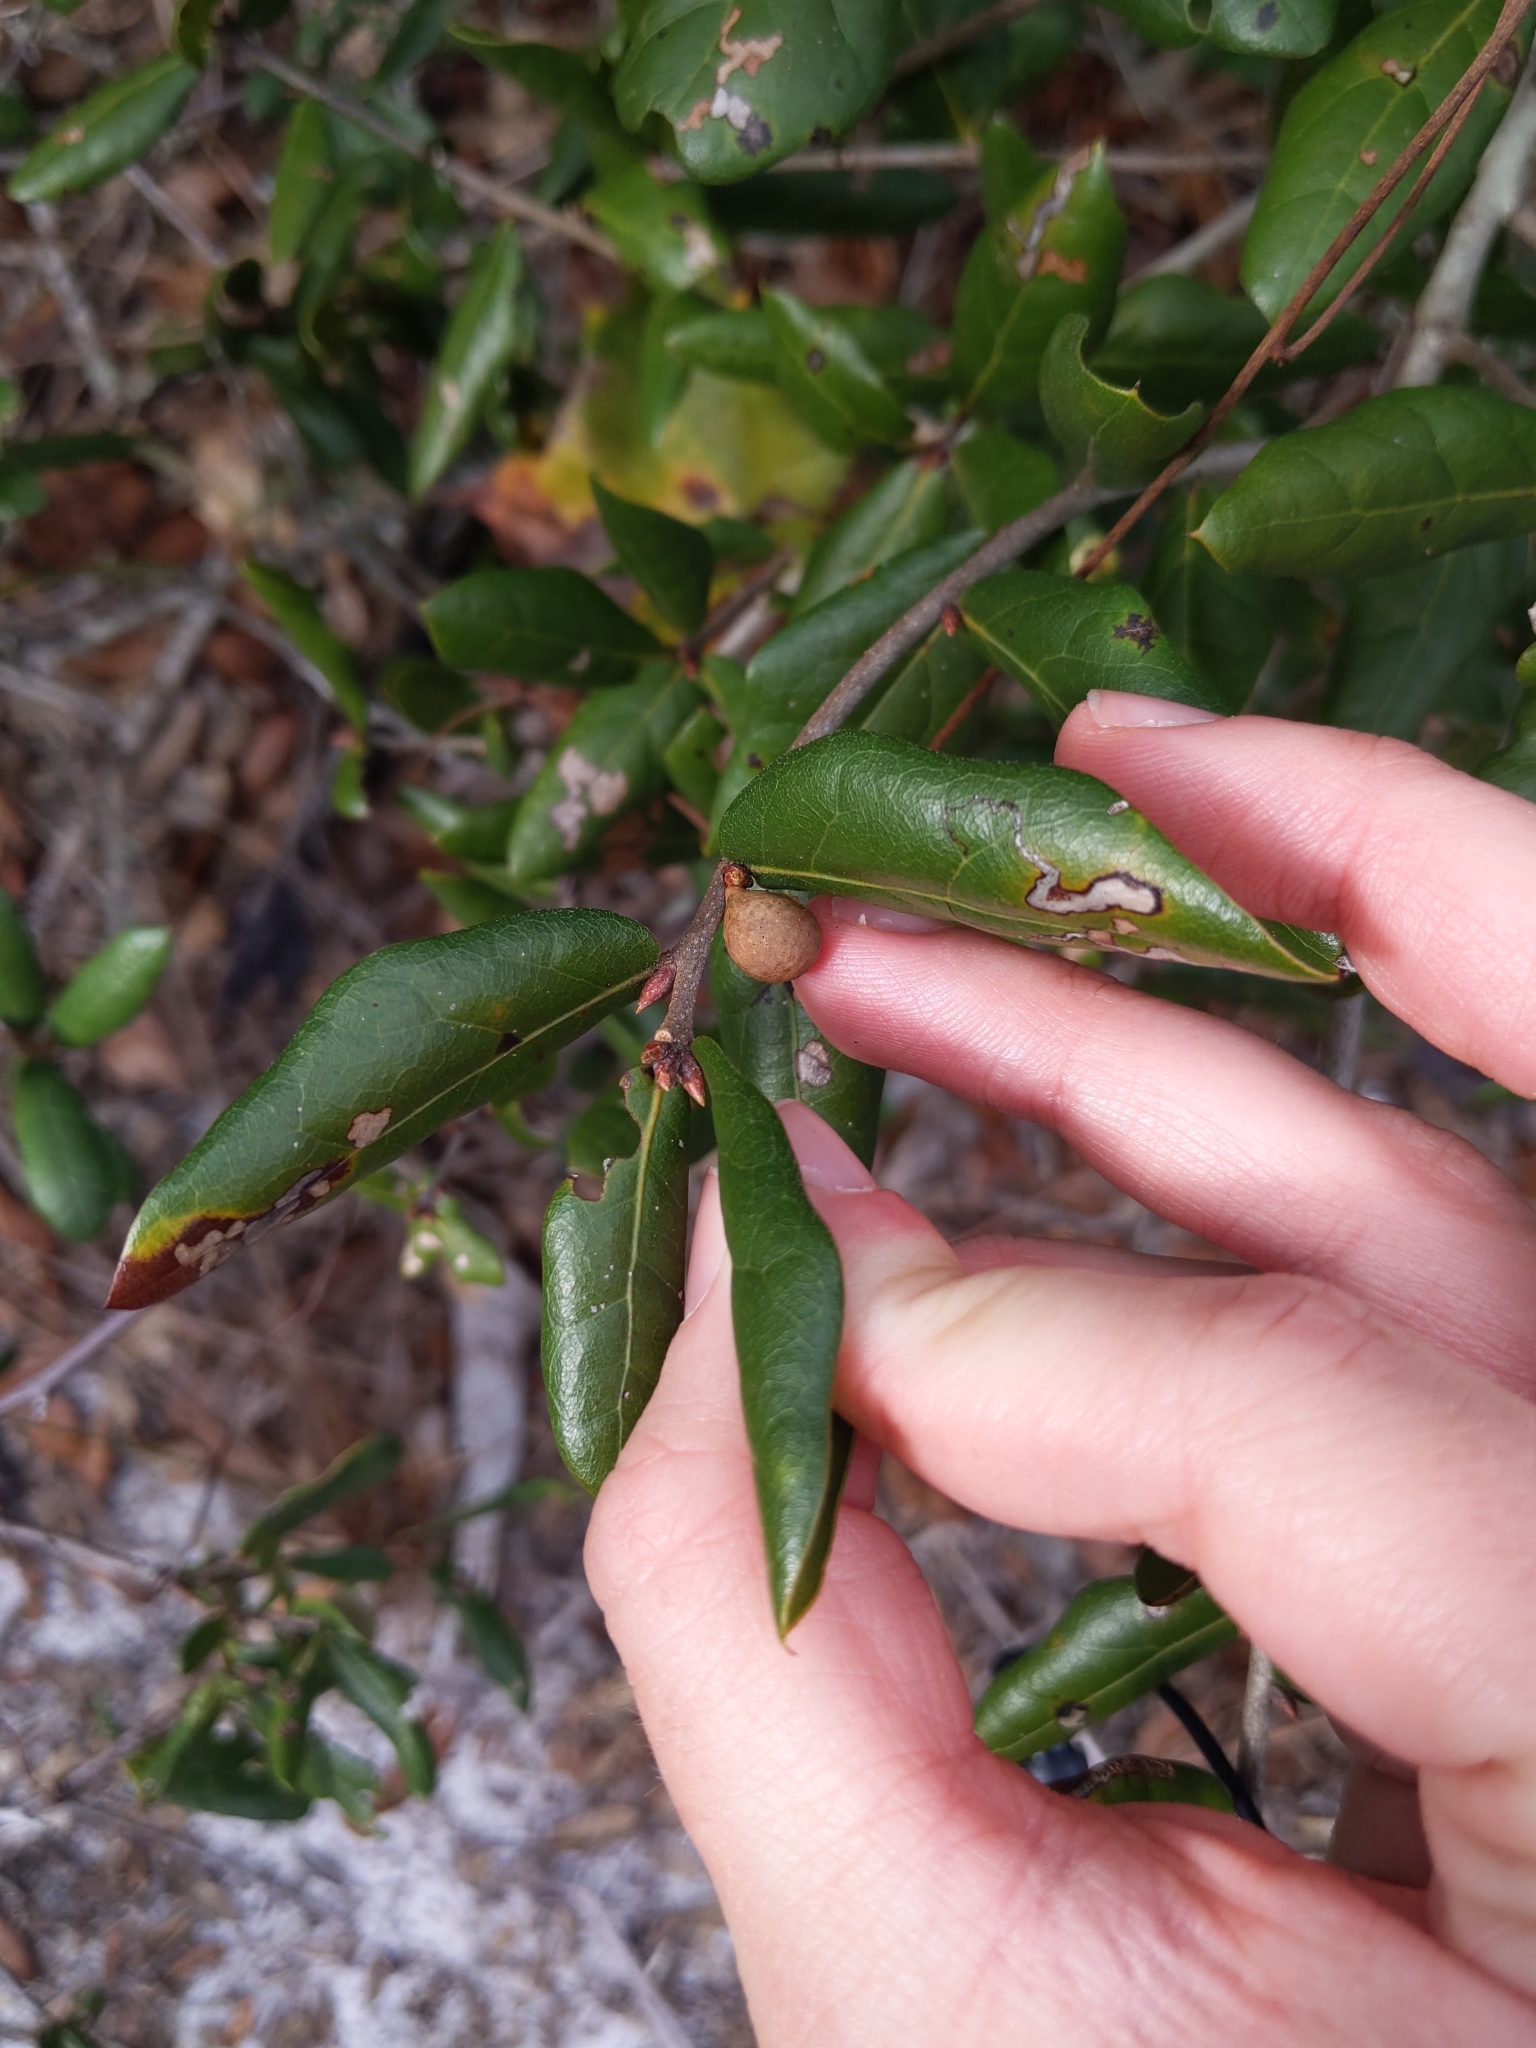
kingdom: Plantae
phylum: Tracheophyta
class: Magnoliopsida
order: Fagales
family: Fagaceae
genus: Quercus
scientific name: Quercus inopina
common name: Sandhill oak
